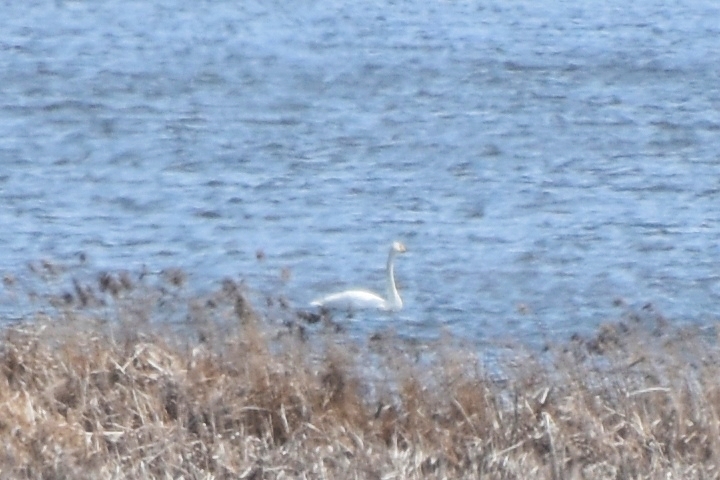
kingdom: Animalia
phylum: Chordata
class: Aves
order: Anseriformes
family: Anatidae
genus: Cygnus
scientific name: Cygnus cygnus
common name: Whooper swan
